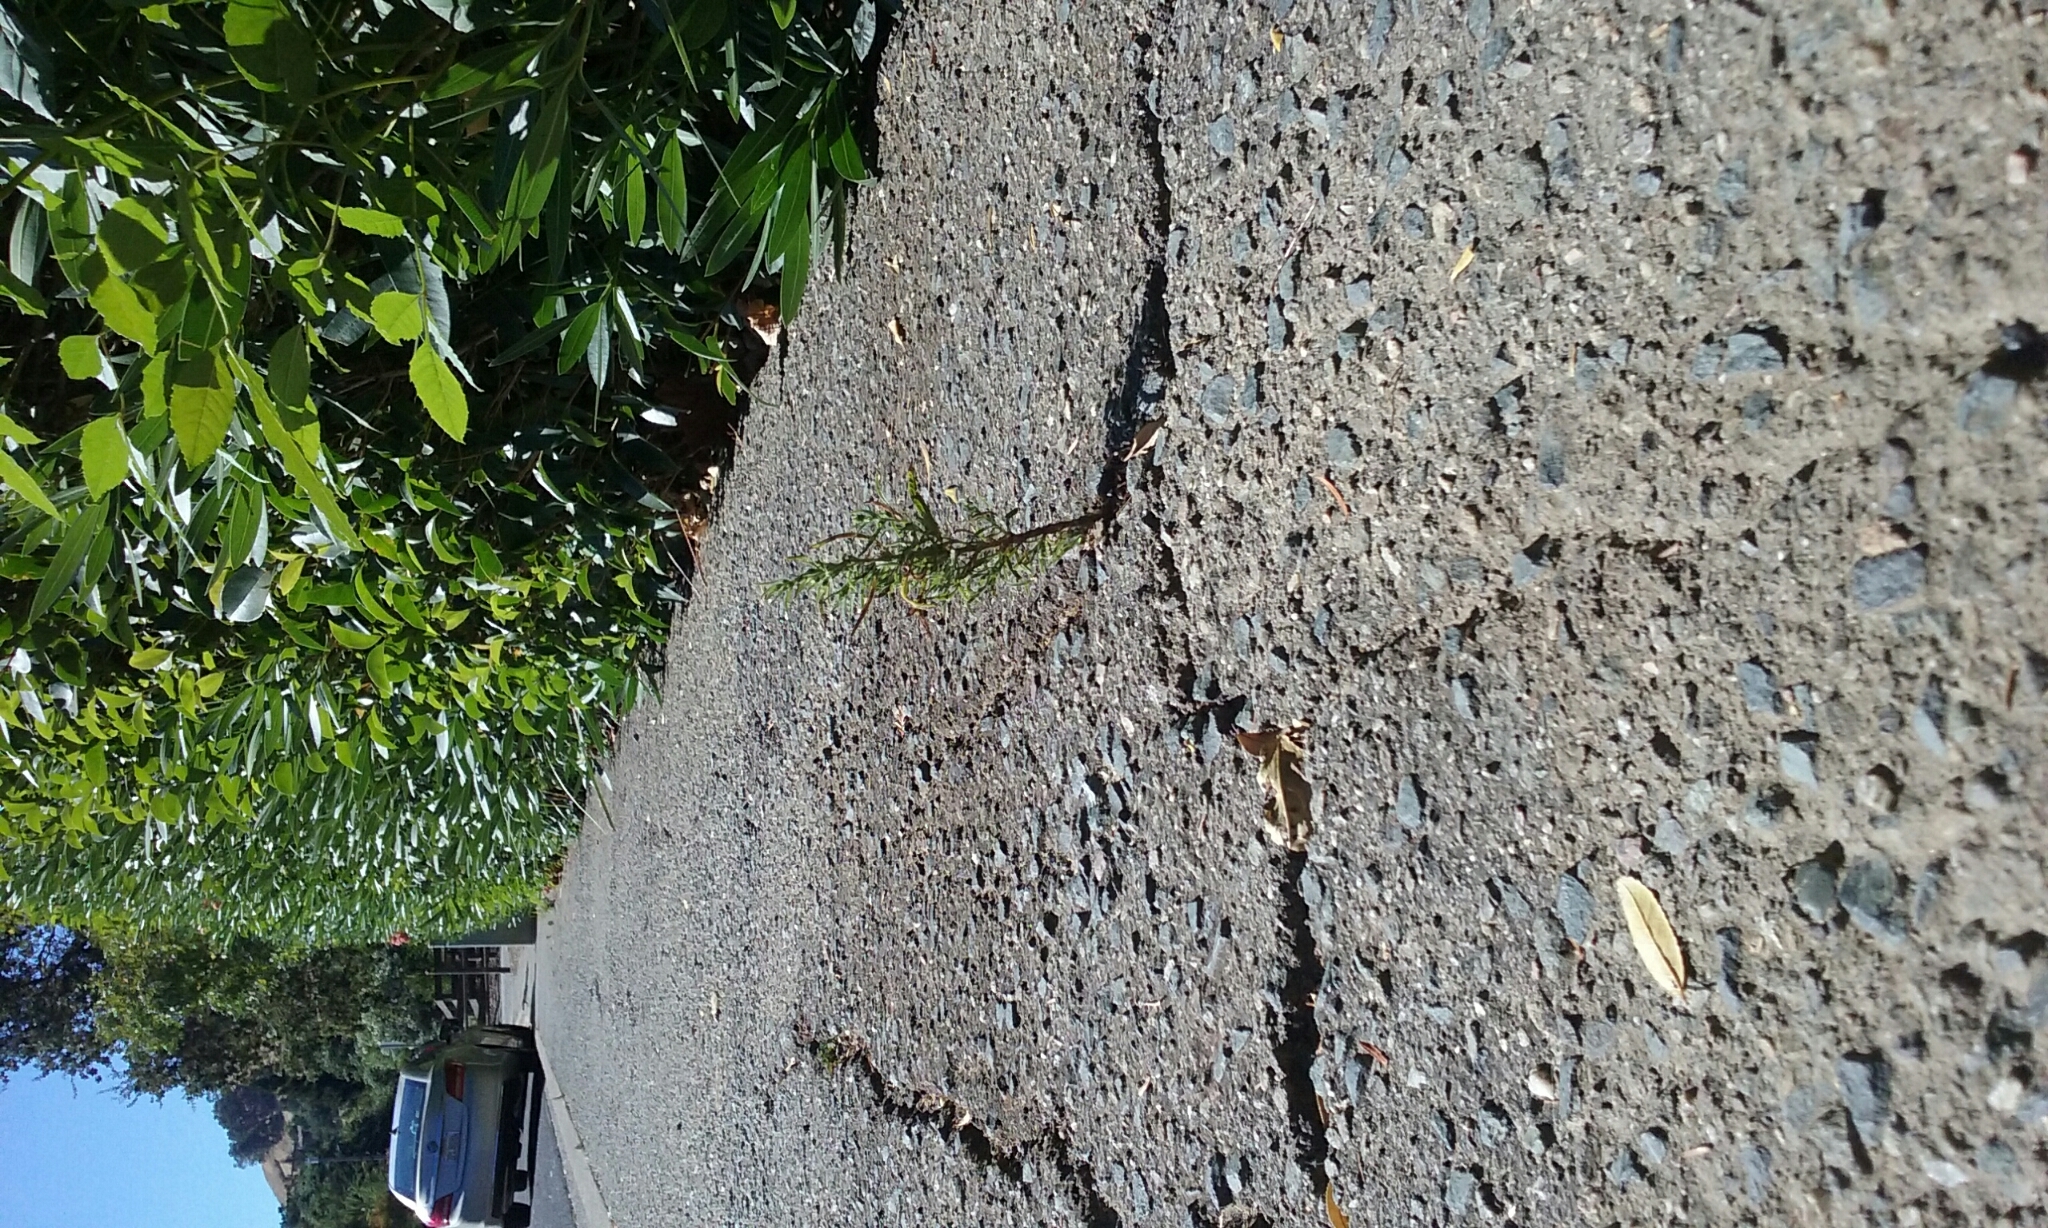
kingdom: Plantae
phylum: Tracheophyta
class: Magnoliopsida
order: Asterales
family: Asteraceae
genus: Dittrichia
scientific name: Dittrichia graveolens
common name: Stinking fleabane
